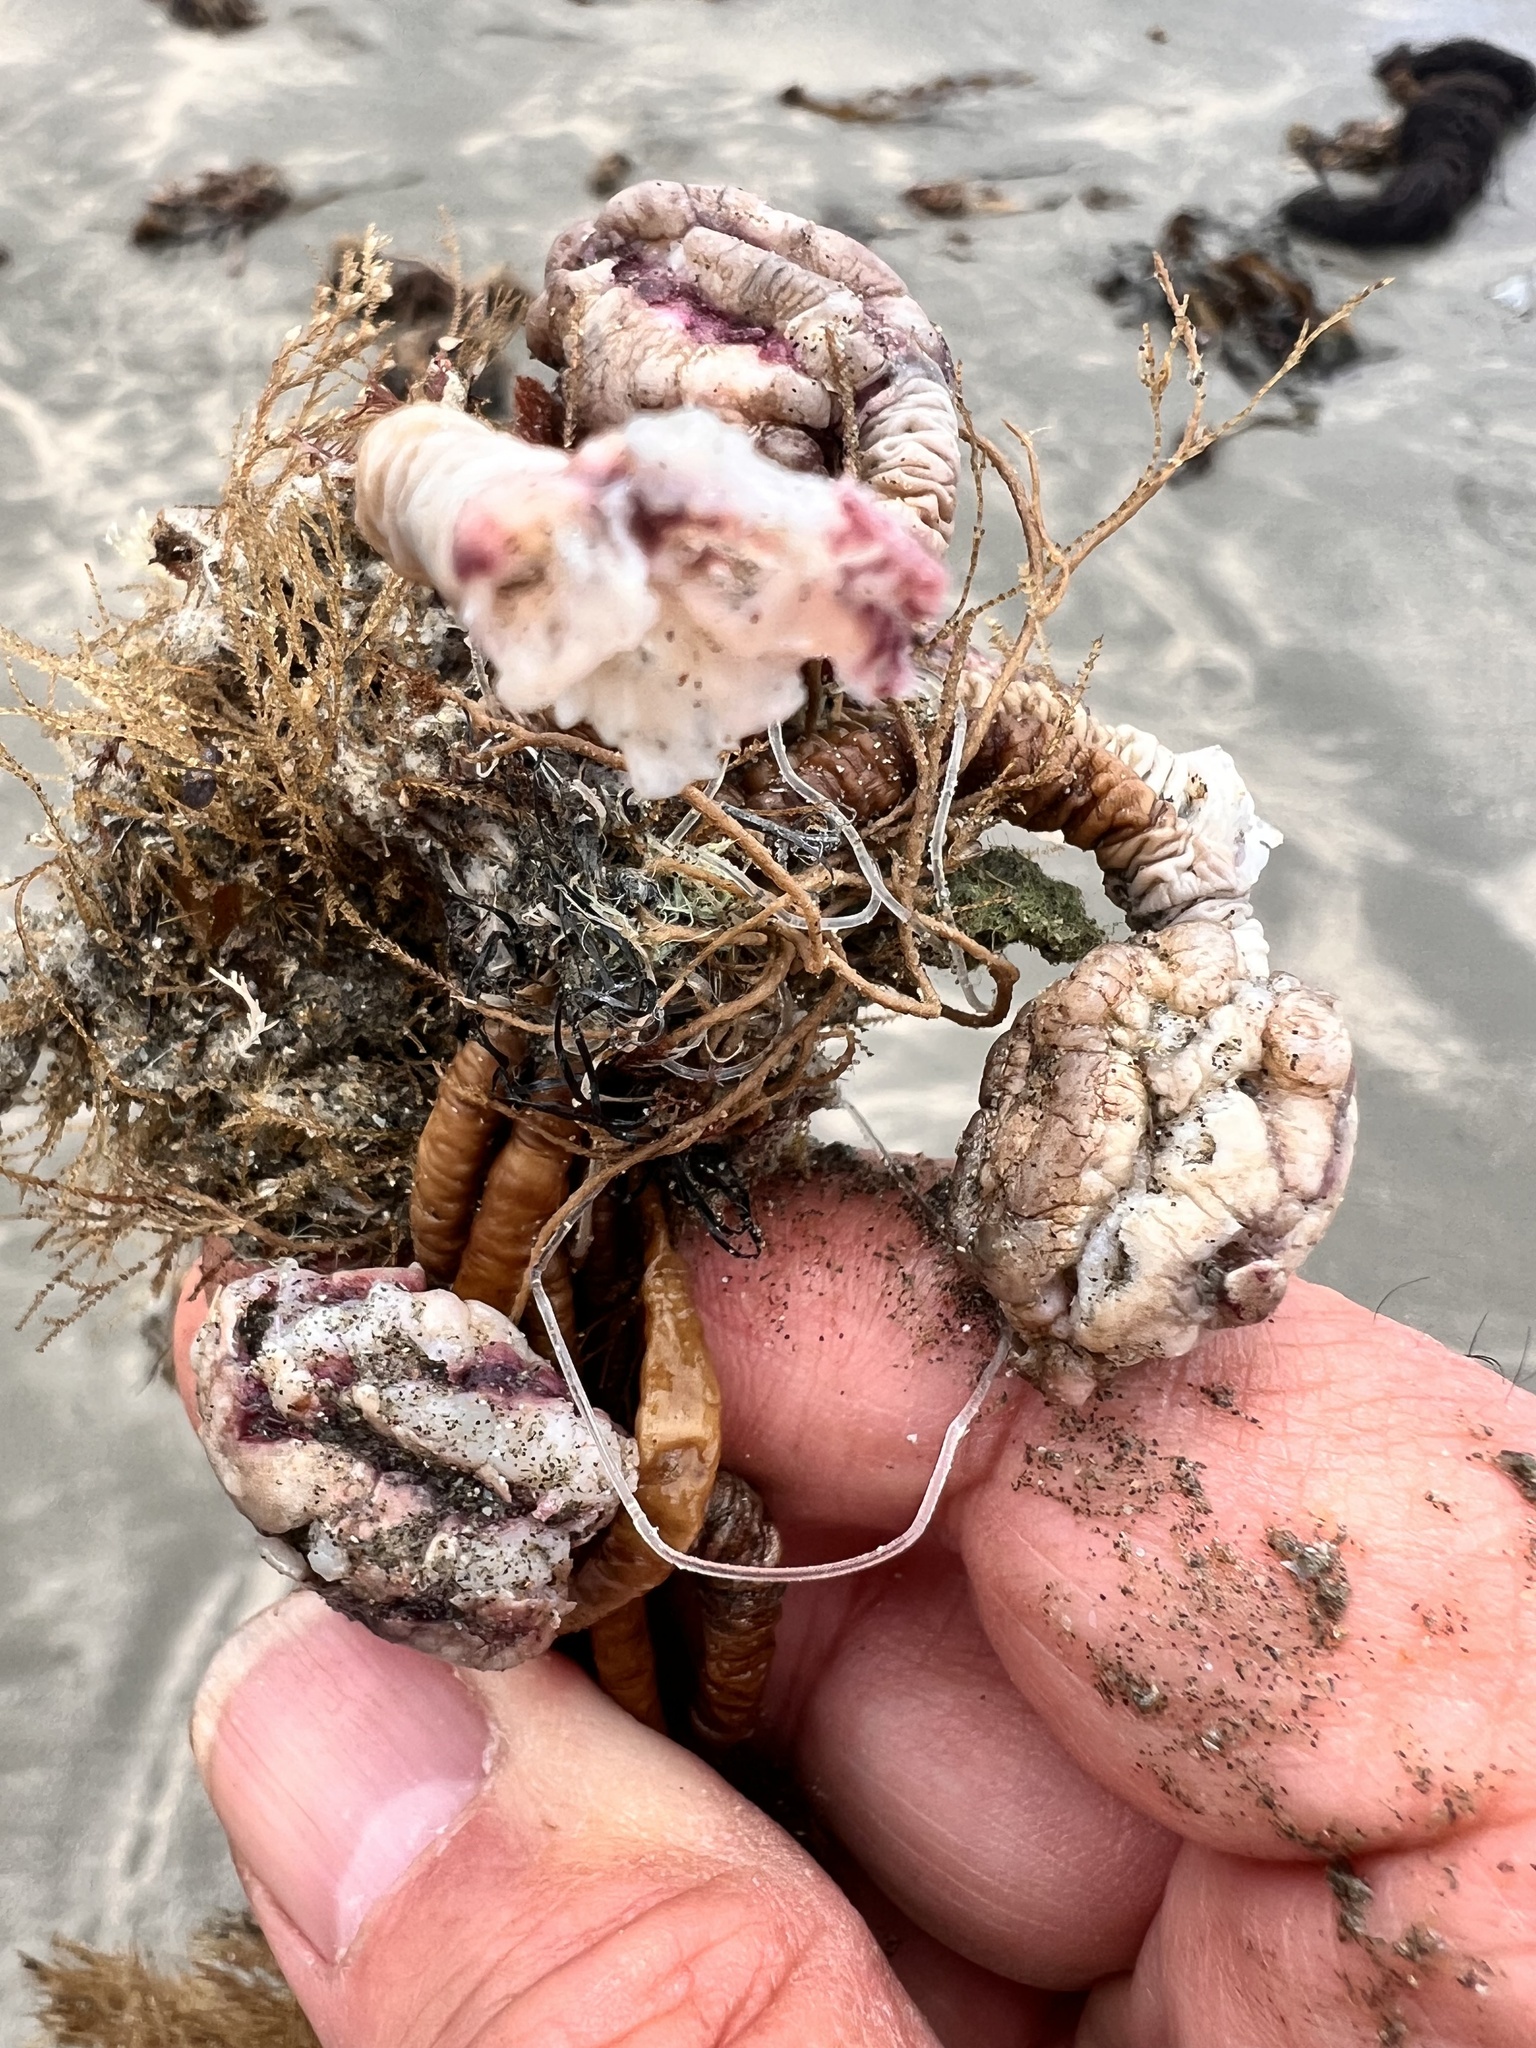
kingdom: Animalia
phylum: Chordata
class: Ascidiacea
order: Stolidobranchia
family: Pyuridae
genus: Pyura
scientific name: Pyura pachydermatina
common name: Sea tulip
